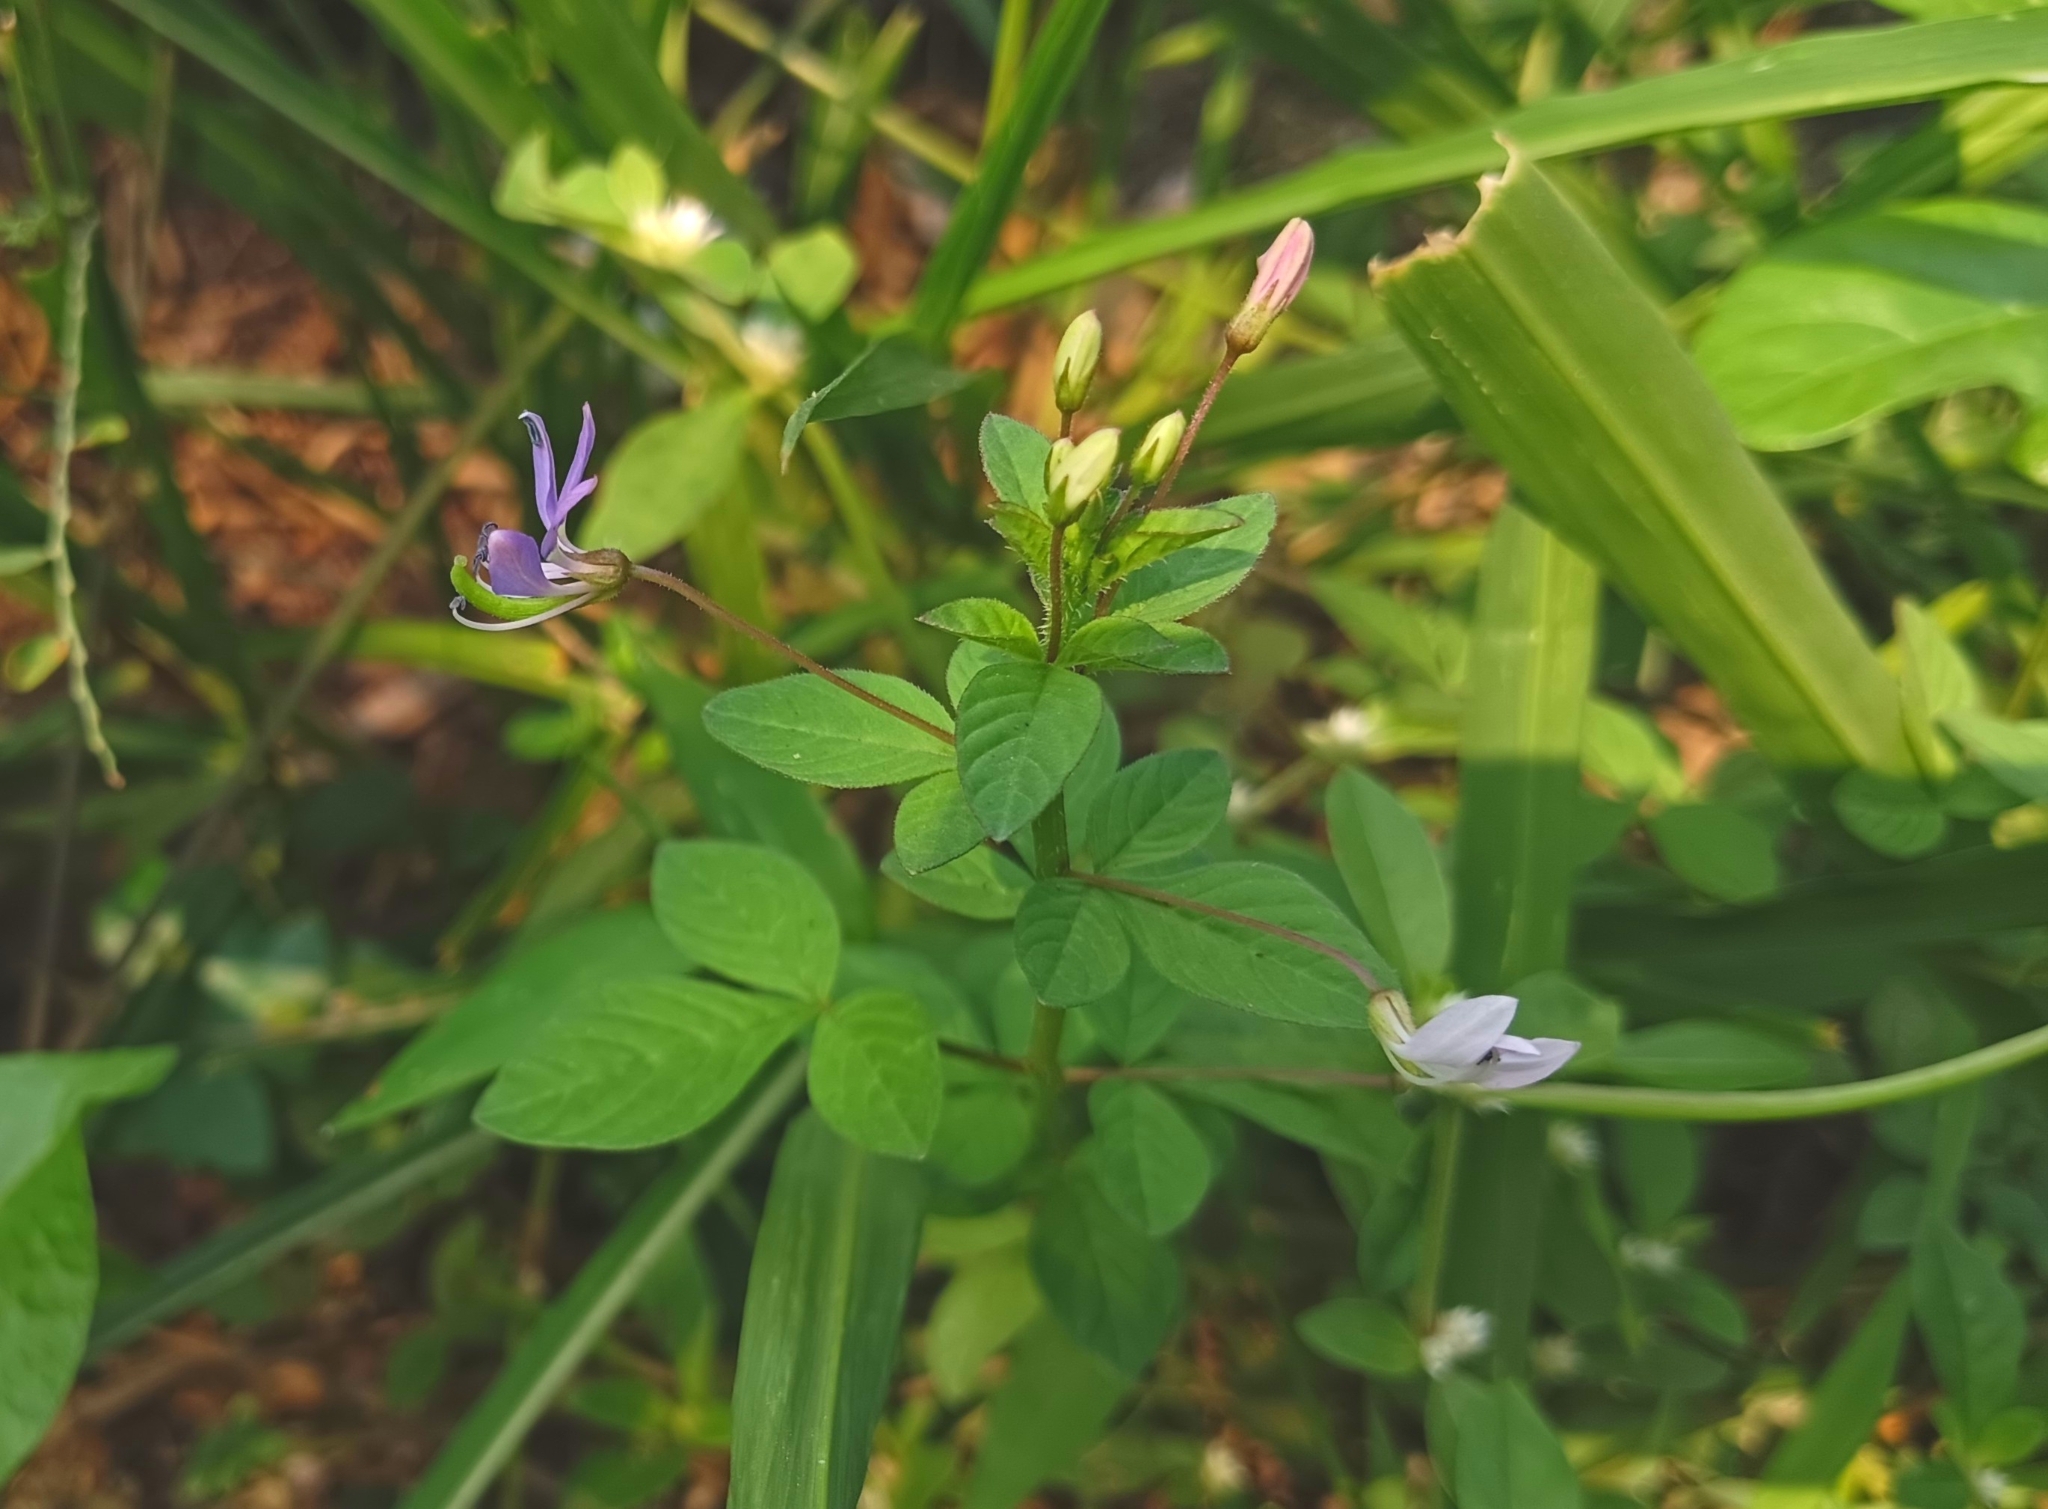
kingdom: Plantae
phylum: Tracheophyta
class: Magnoliopsida
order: Brassicales
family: Cleomaceae
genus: Sieruela
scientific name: Sieruela rutidosperma
